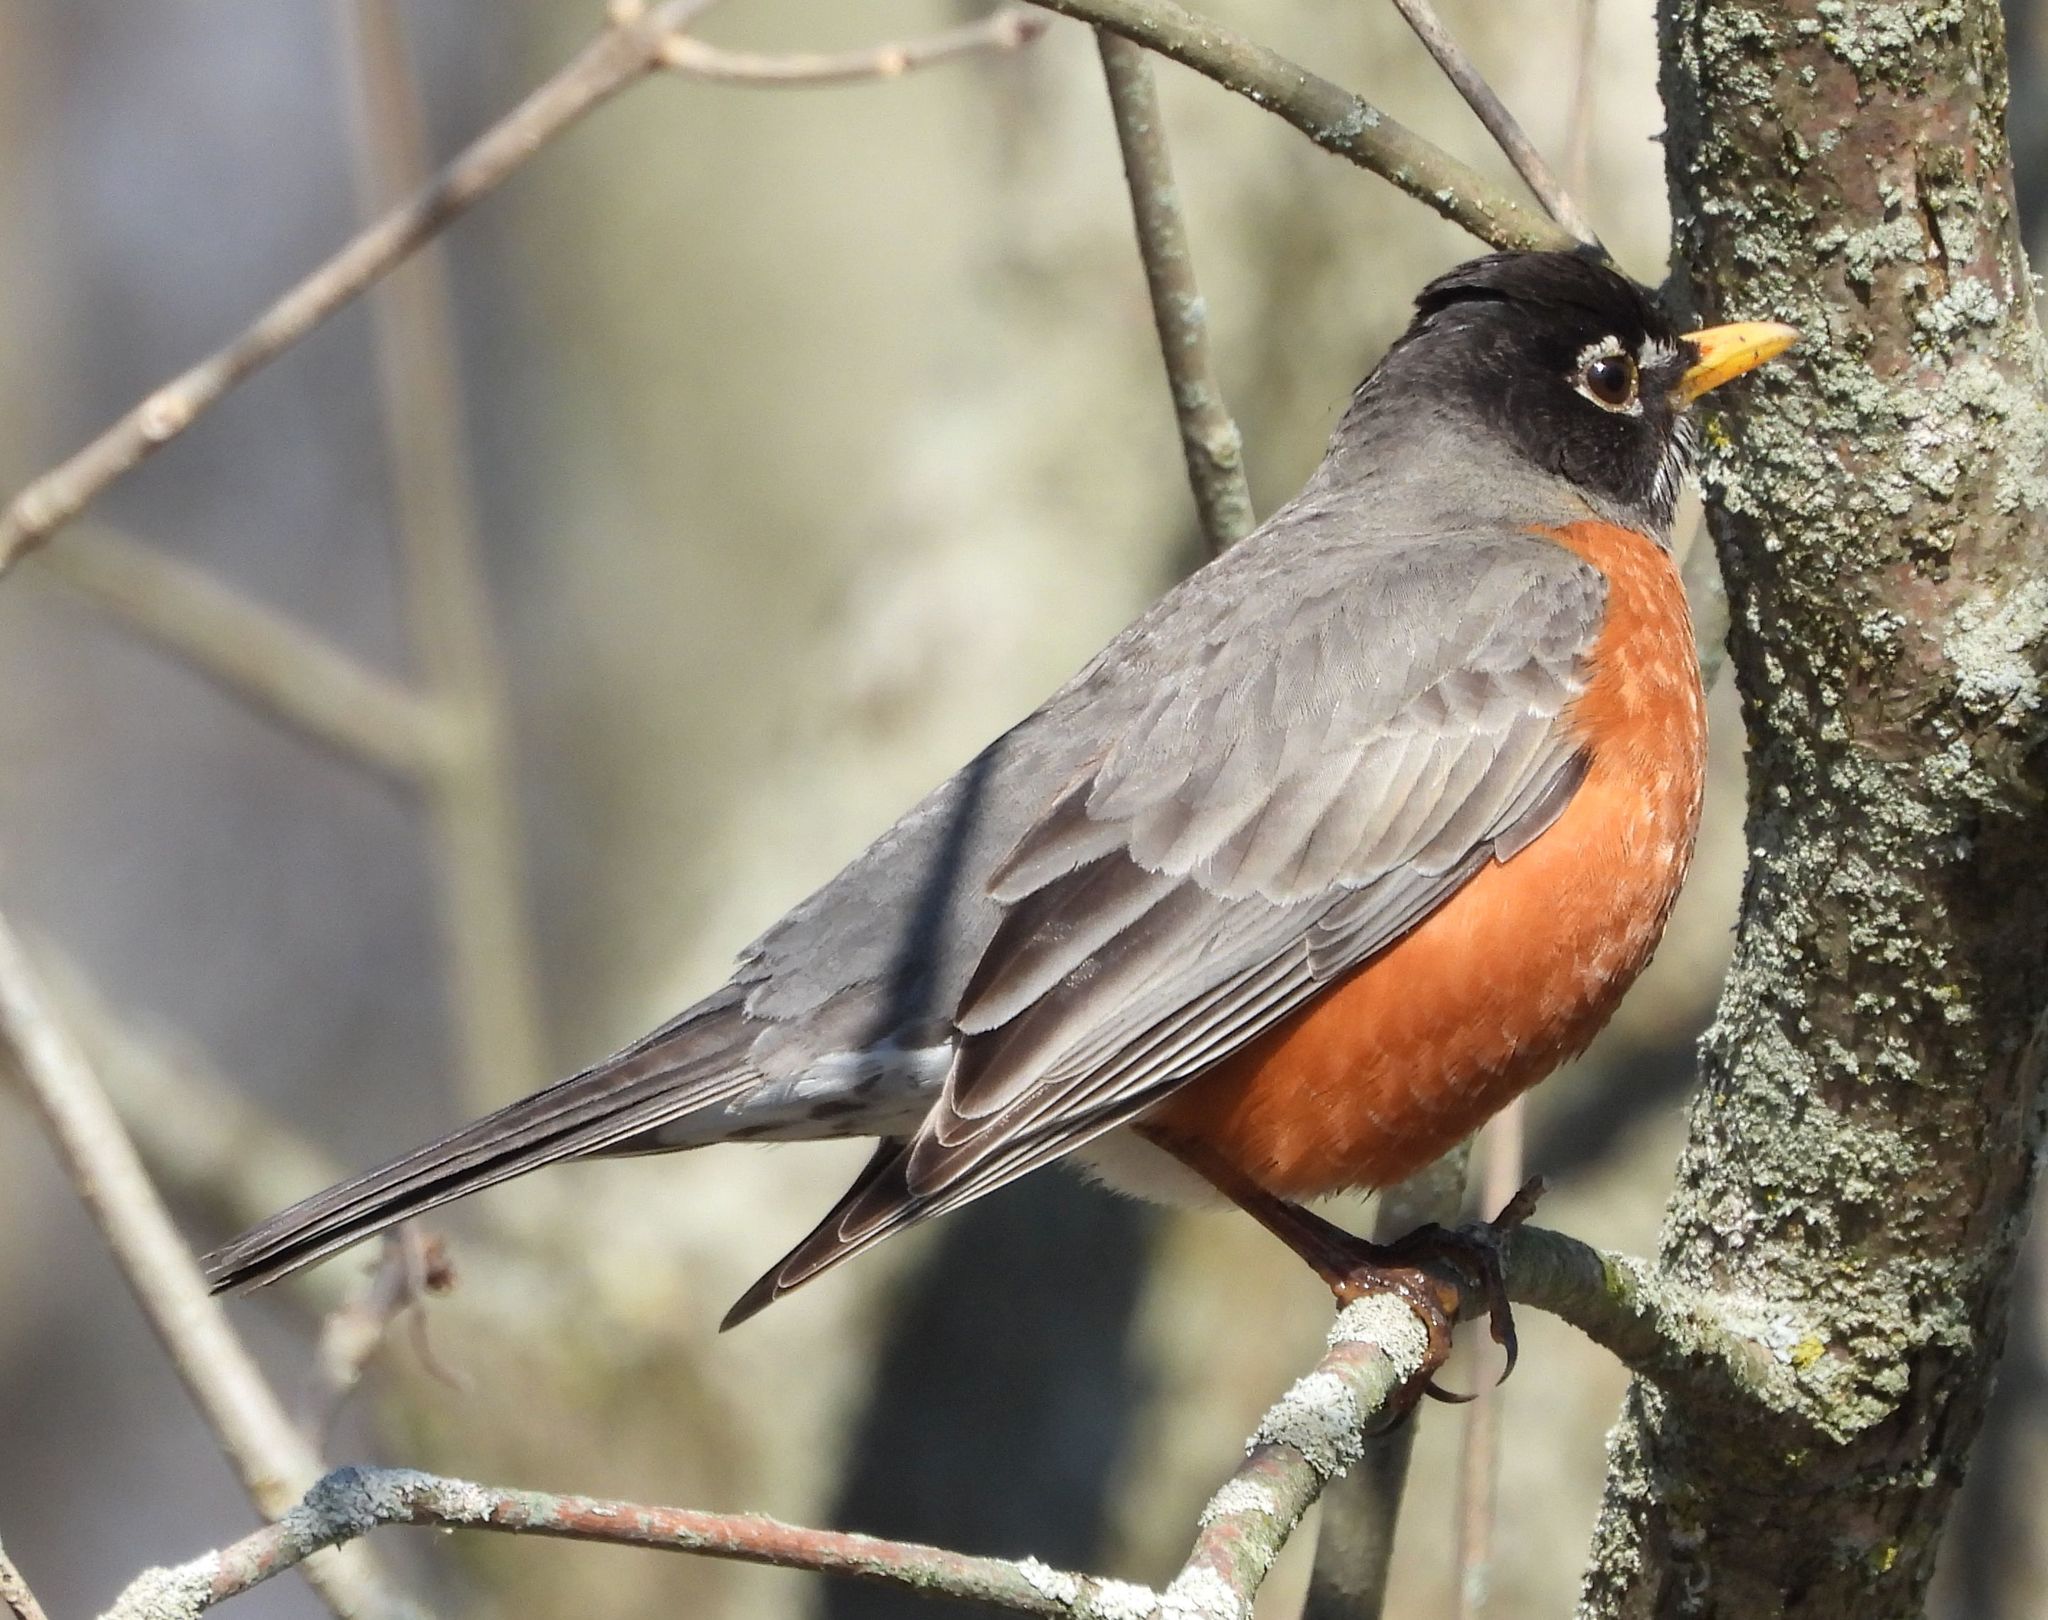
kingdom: Animalia
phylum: Chordata
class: Aves
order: Passeriformes
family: Turdidae
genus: Turdus
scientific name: Turdus migratorius
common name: American robin
